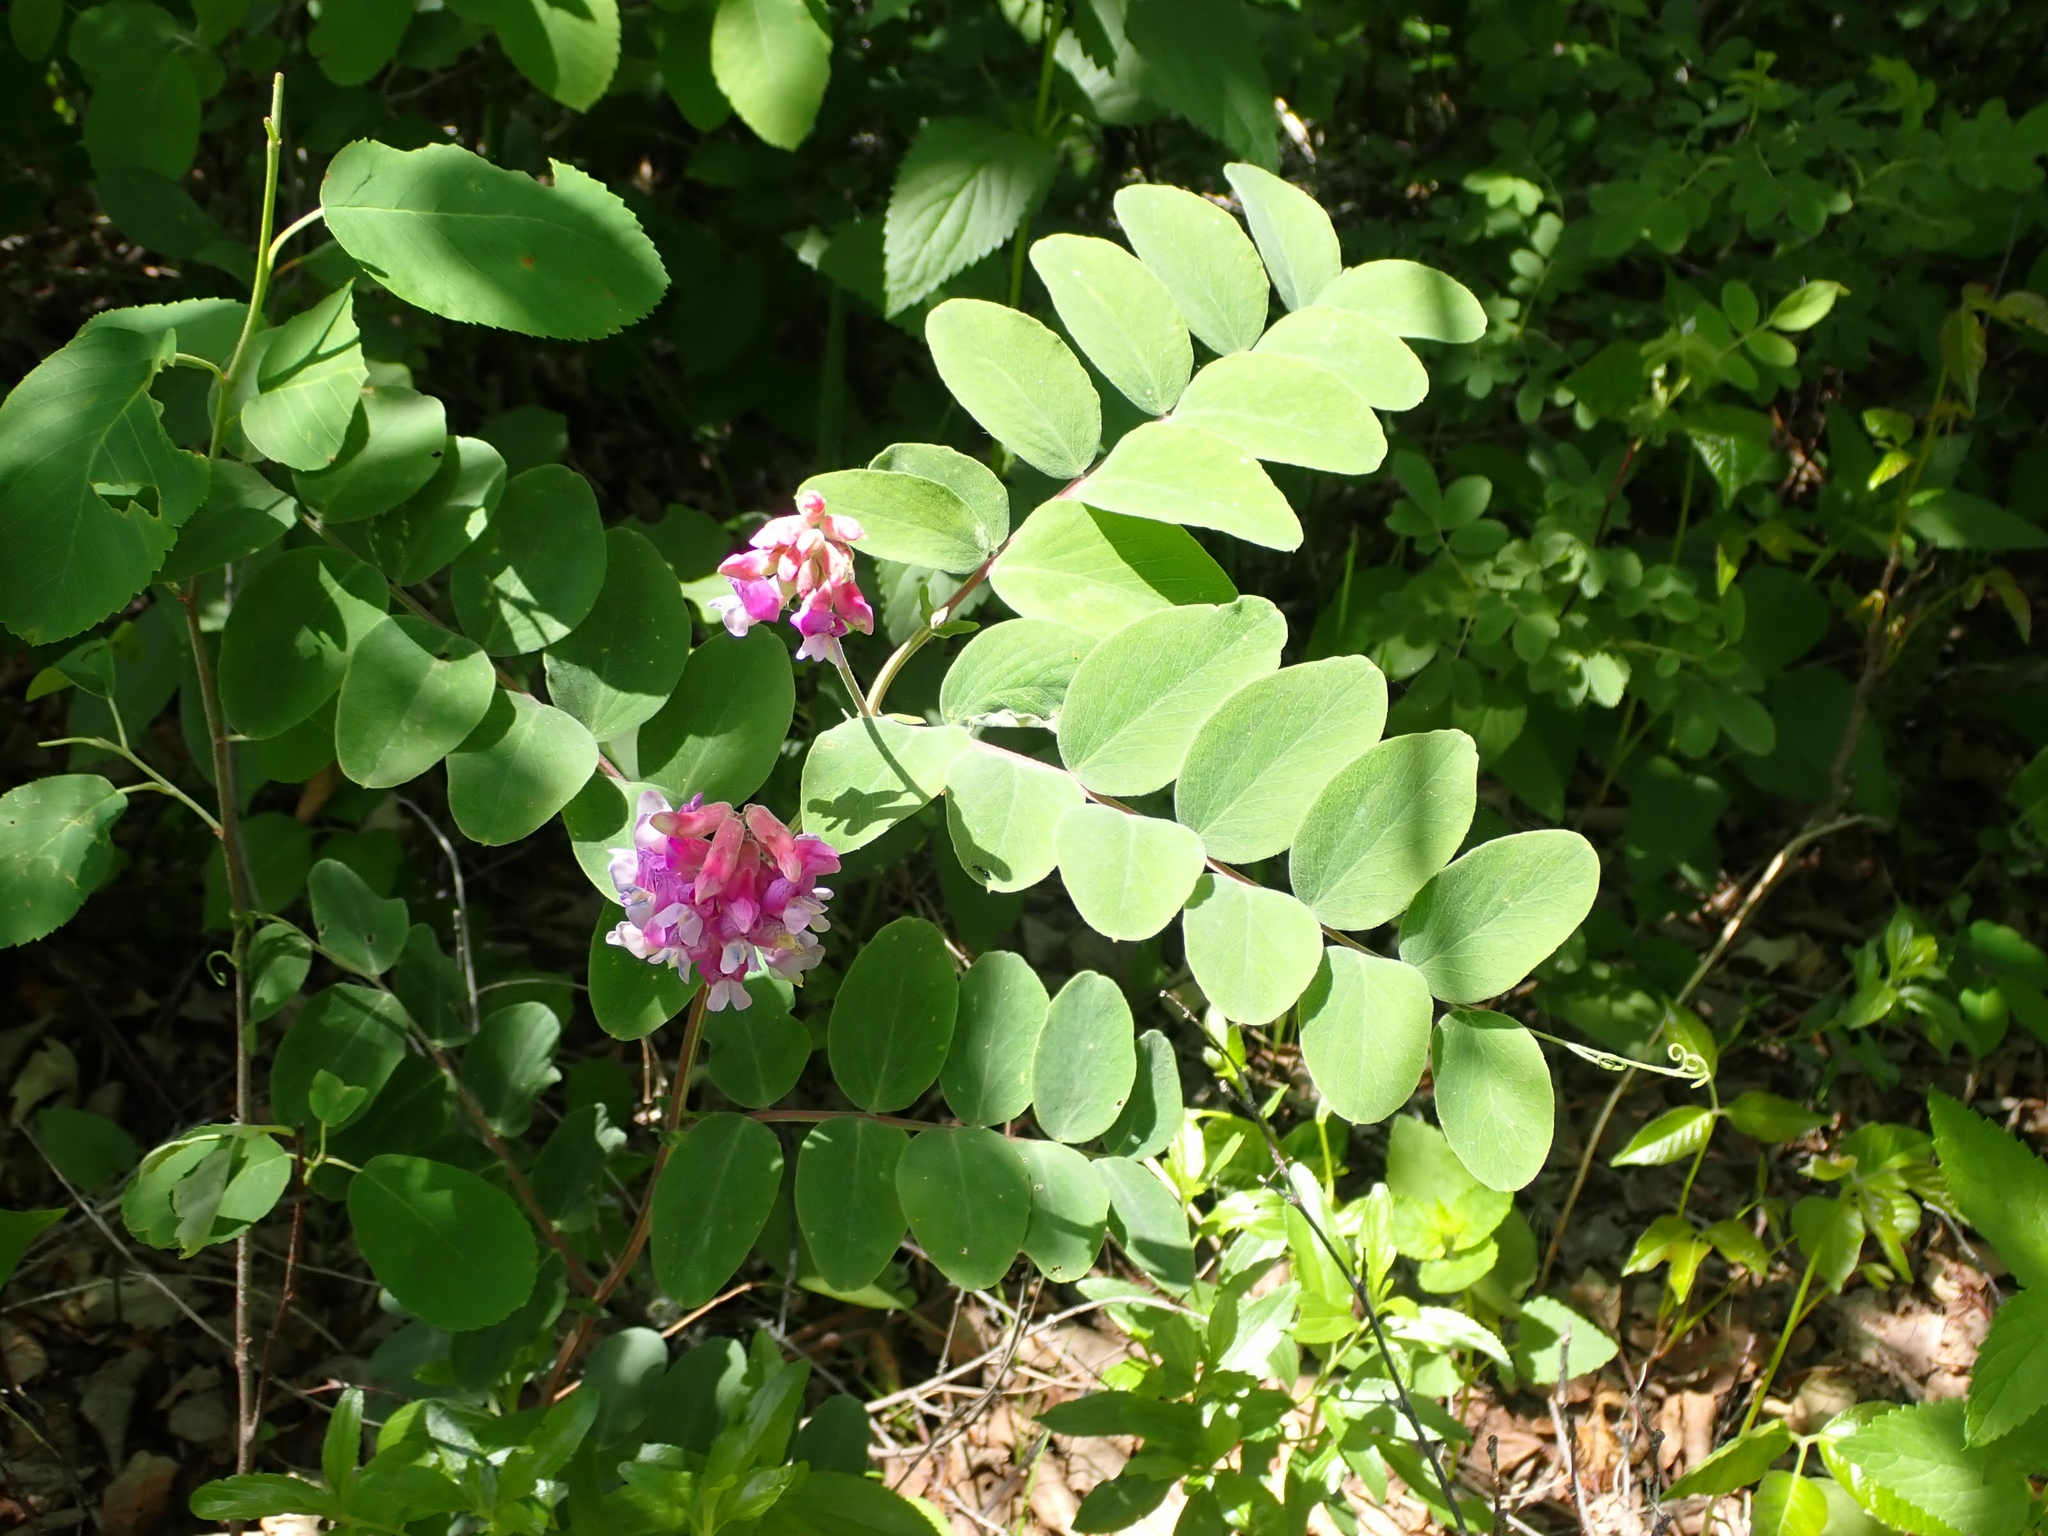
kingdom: Plantae
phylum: Tracheophyta
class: Magnoliopsida
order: Fabales
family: Fabaceae
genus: Lathyrus
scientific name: Lathyrus venosus
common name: Forest-pea
